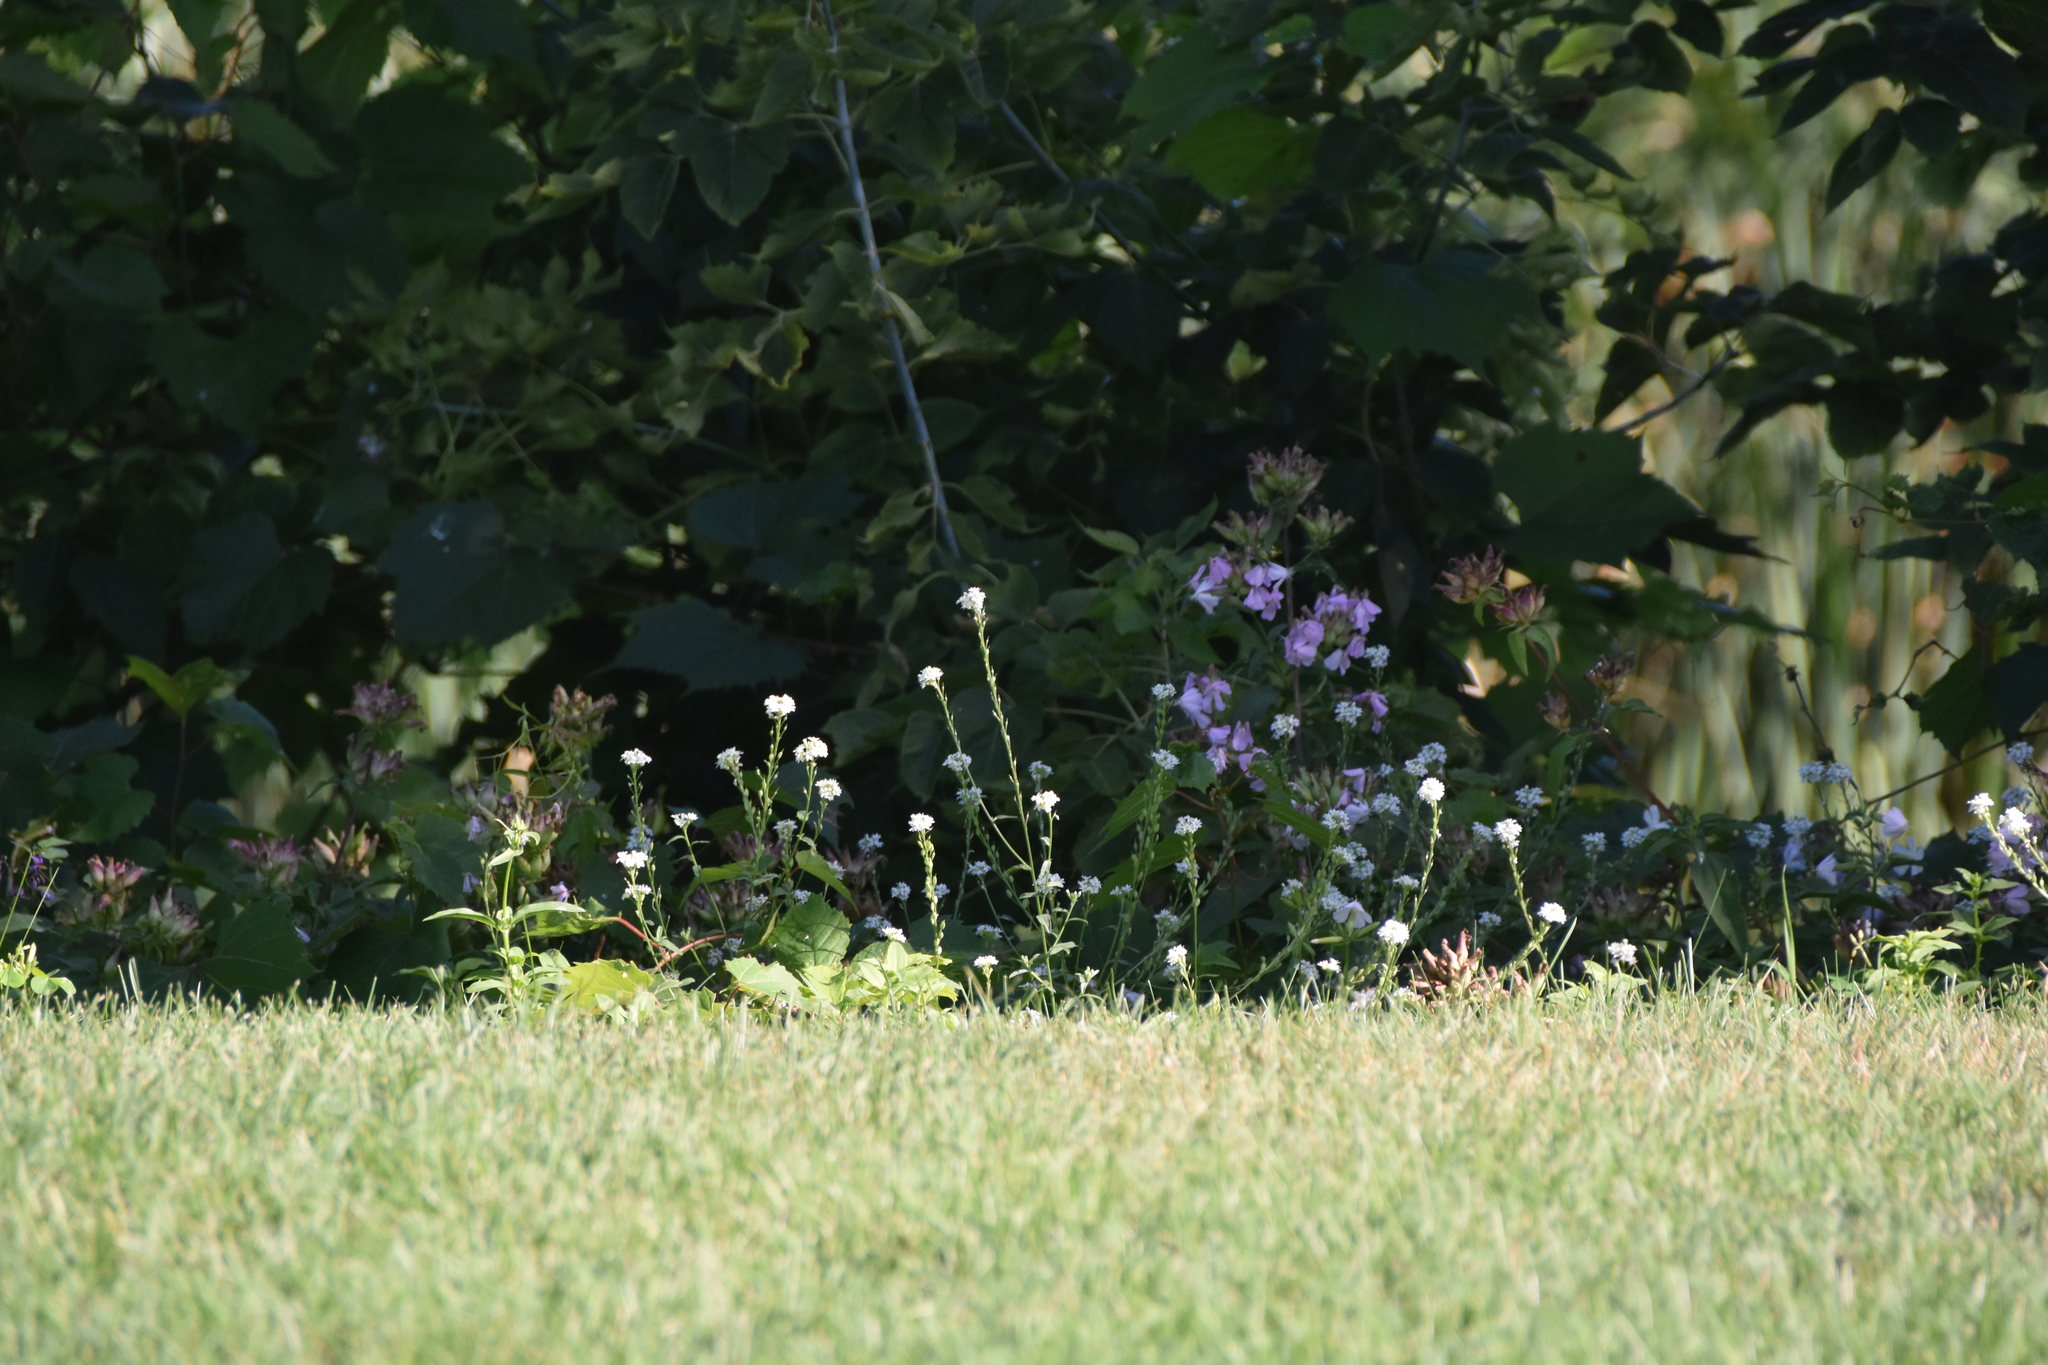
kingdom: Plantae
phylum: Tracheophyta
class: Magnoliopsida
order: Brassicales
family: Brassicaceae
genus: Berteroa
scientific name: Berteroa incana
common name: Hoary alison
